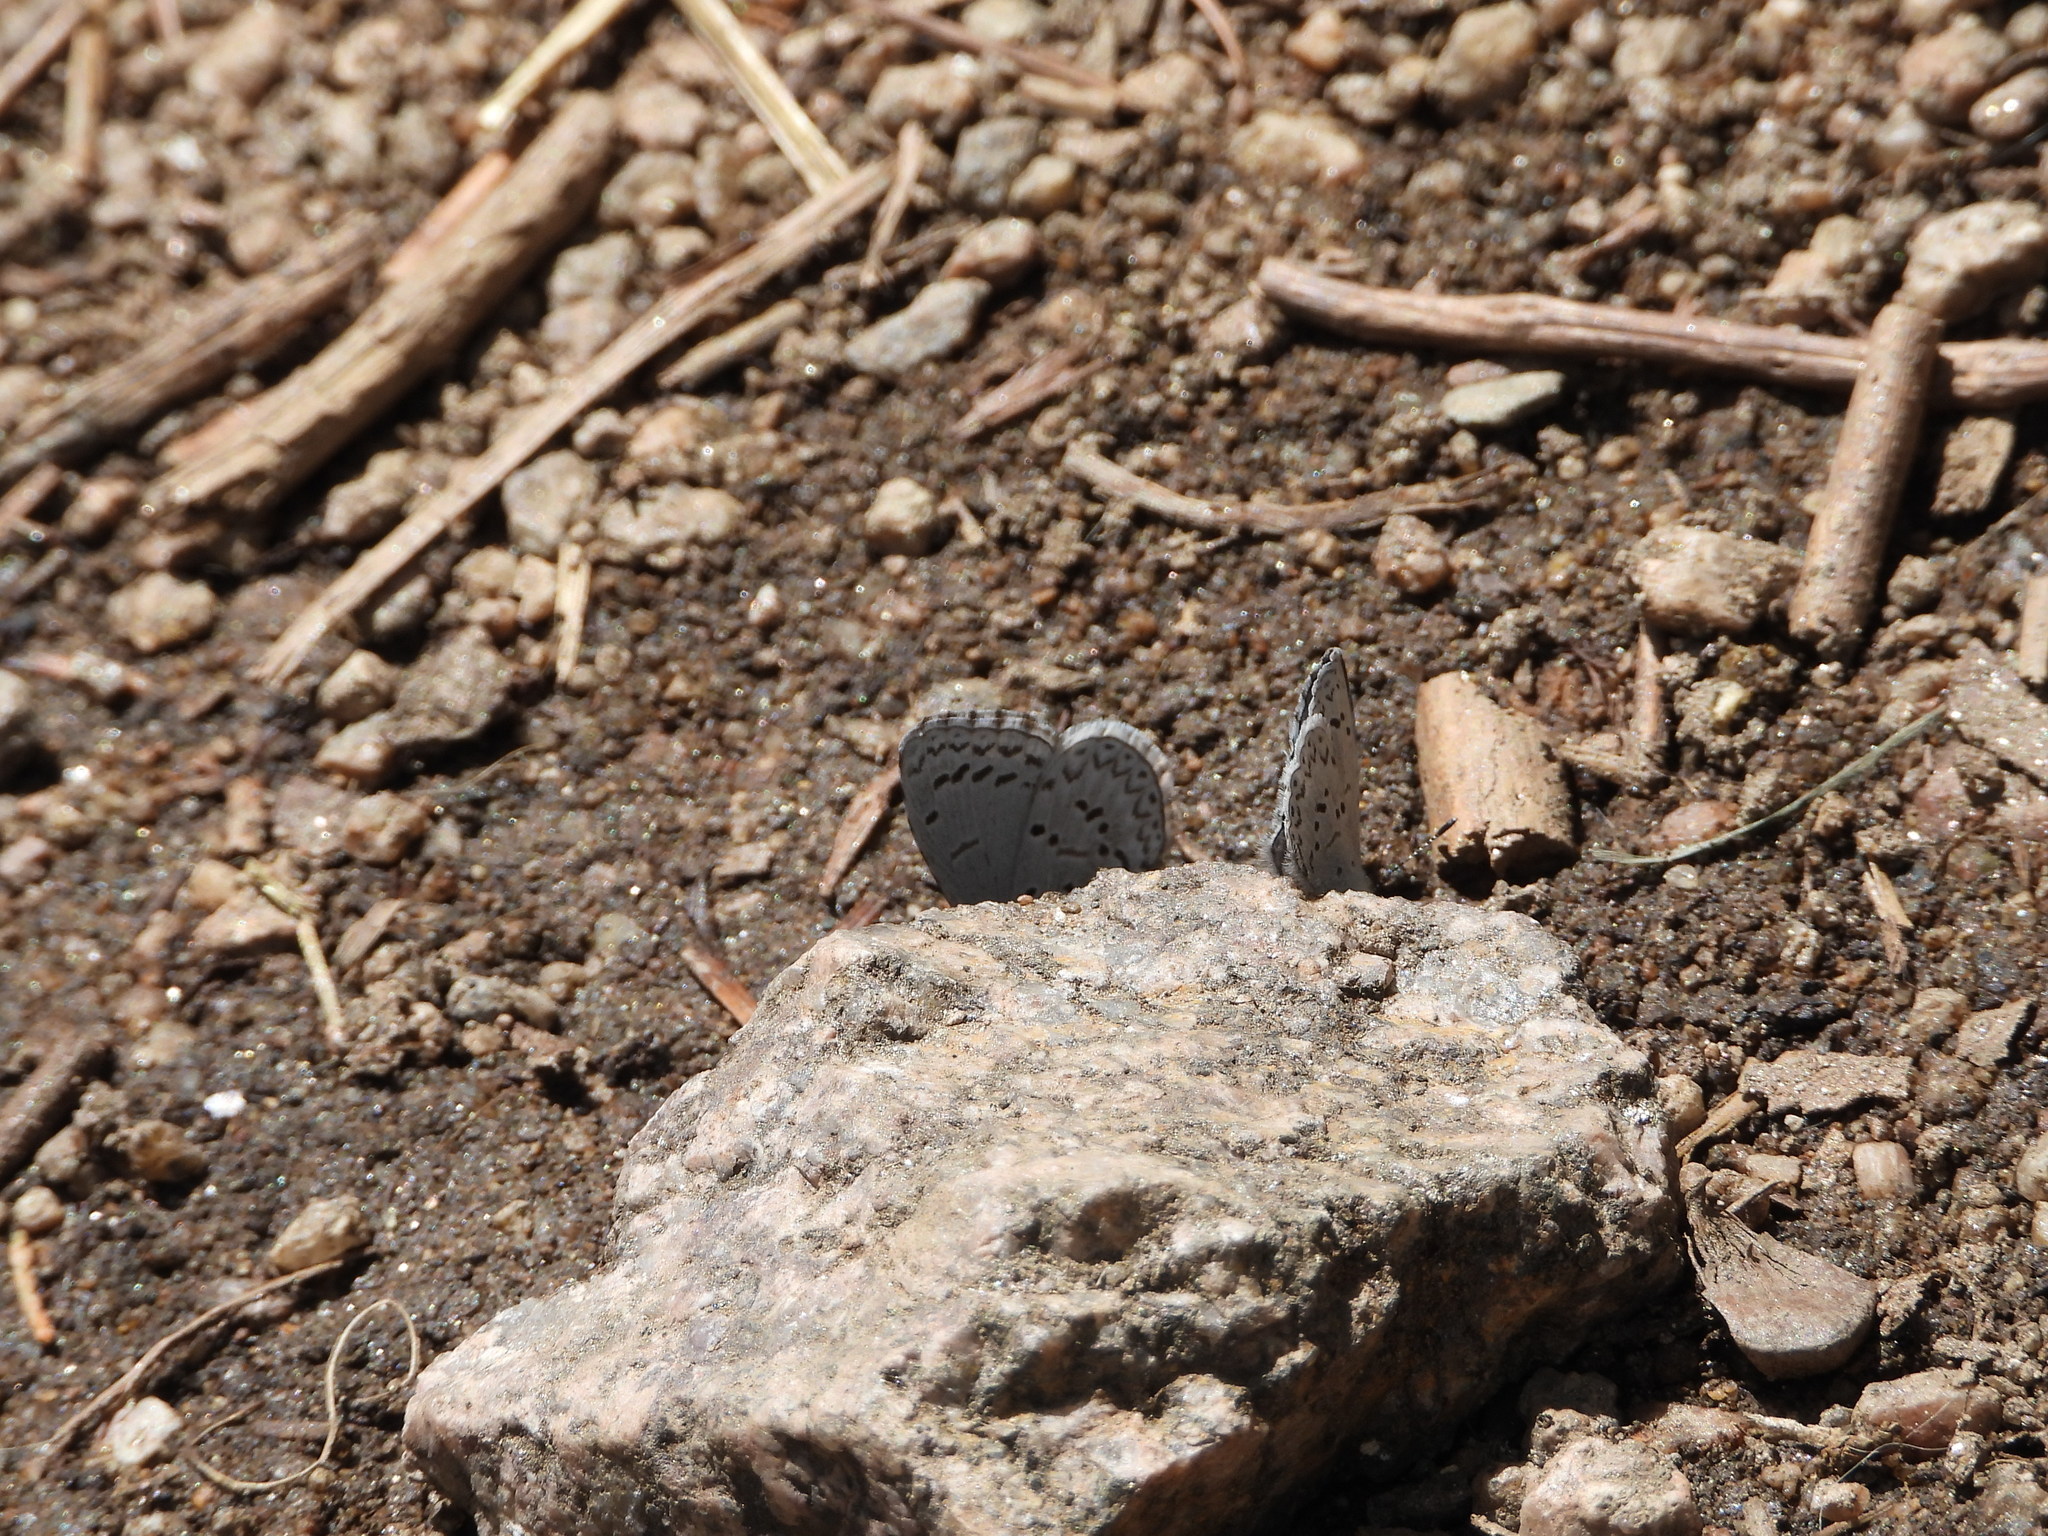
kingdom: Animalia
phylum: Arthropoda
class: Insecta
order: Lepidoptera
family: Lycaenidae
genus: Celastrina
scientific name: Celastrina ladon
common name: Spring azure
